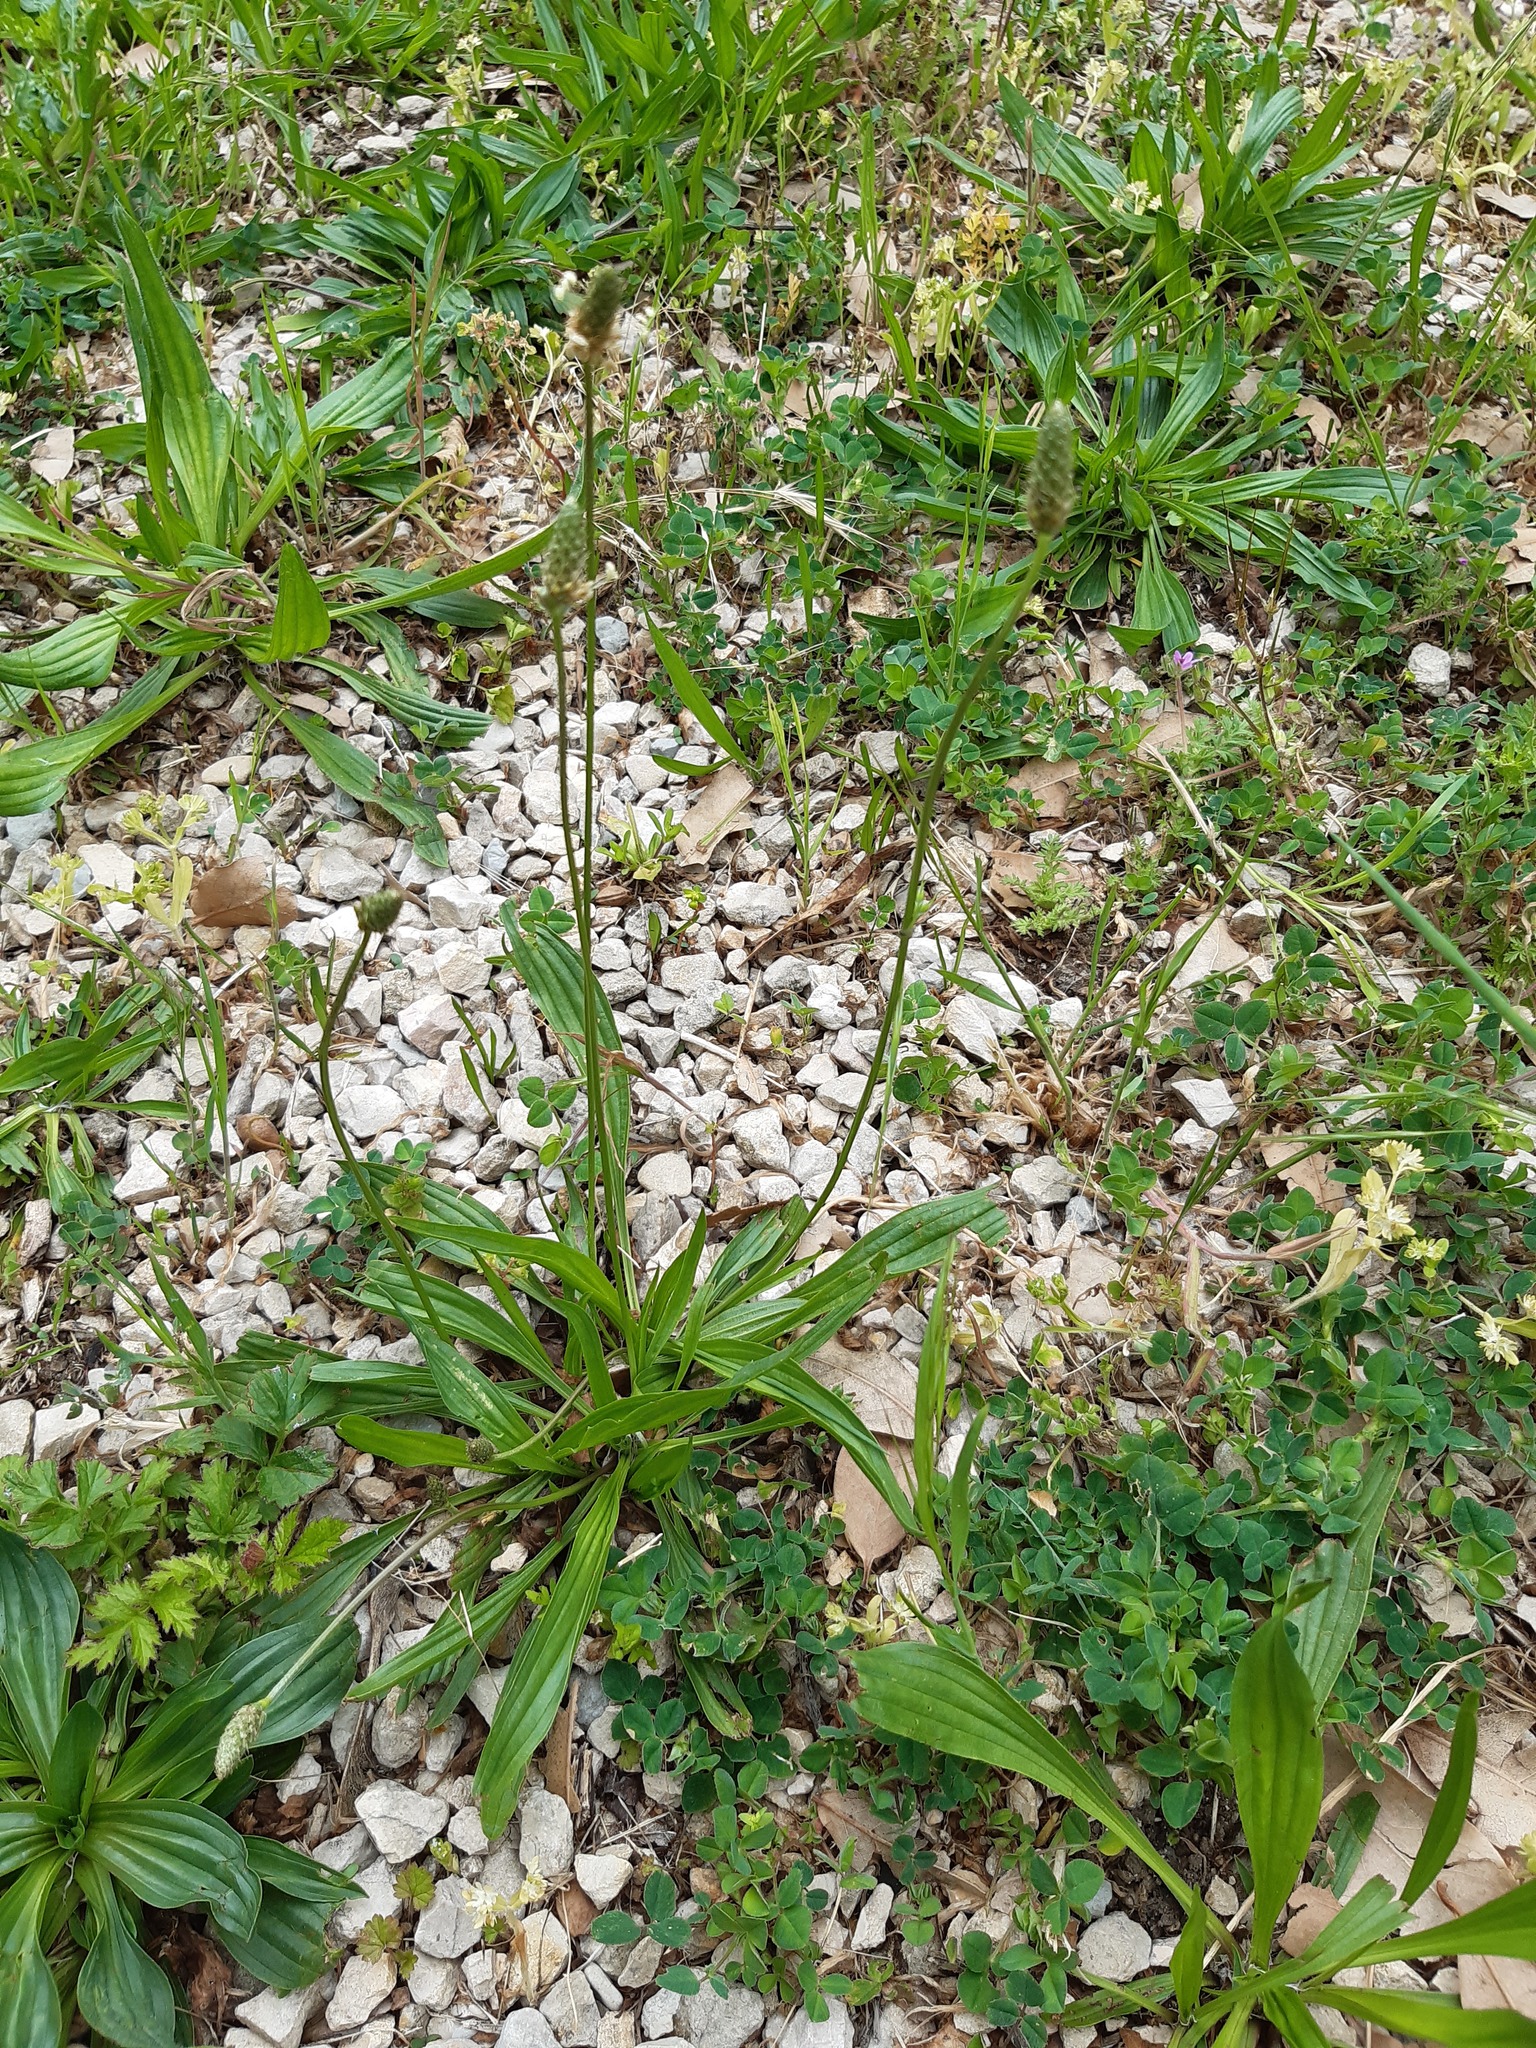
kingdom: Plantae
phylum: Tracheophyta
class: Magnoliopsida
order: Lamiales
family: Plantaginaceae
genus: Plantago
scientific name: Plantago lanceolata
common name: Ribwort plantain
